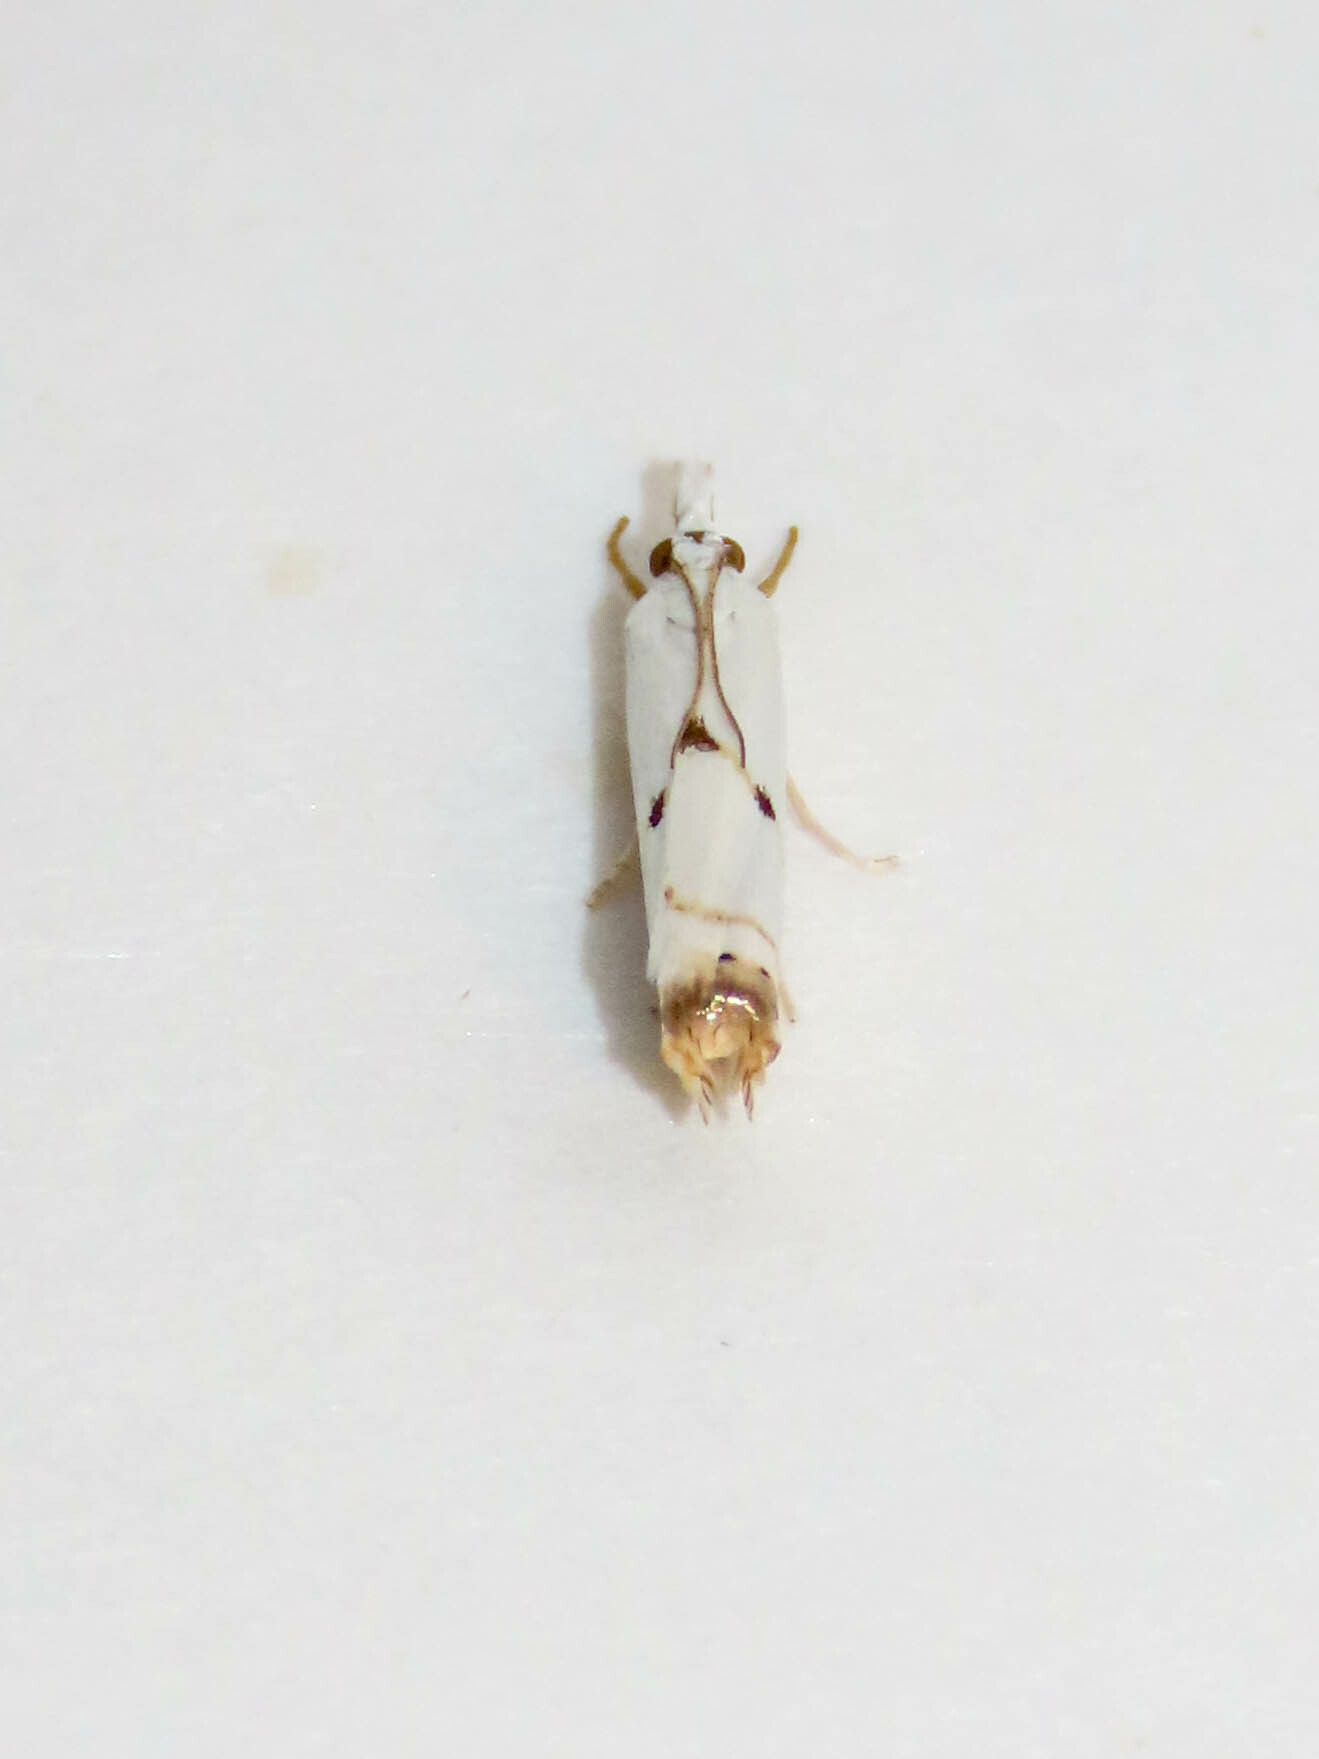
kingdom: Animalia
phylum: Arthropoda
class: Insecta
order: Lepidoptera
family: Crambidae
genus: Microcrambus
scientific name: Microcrambus biguttellus
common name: Gold-stripe grass-veneer moth
